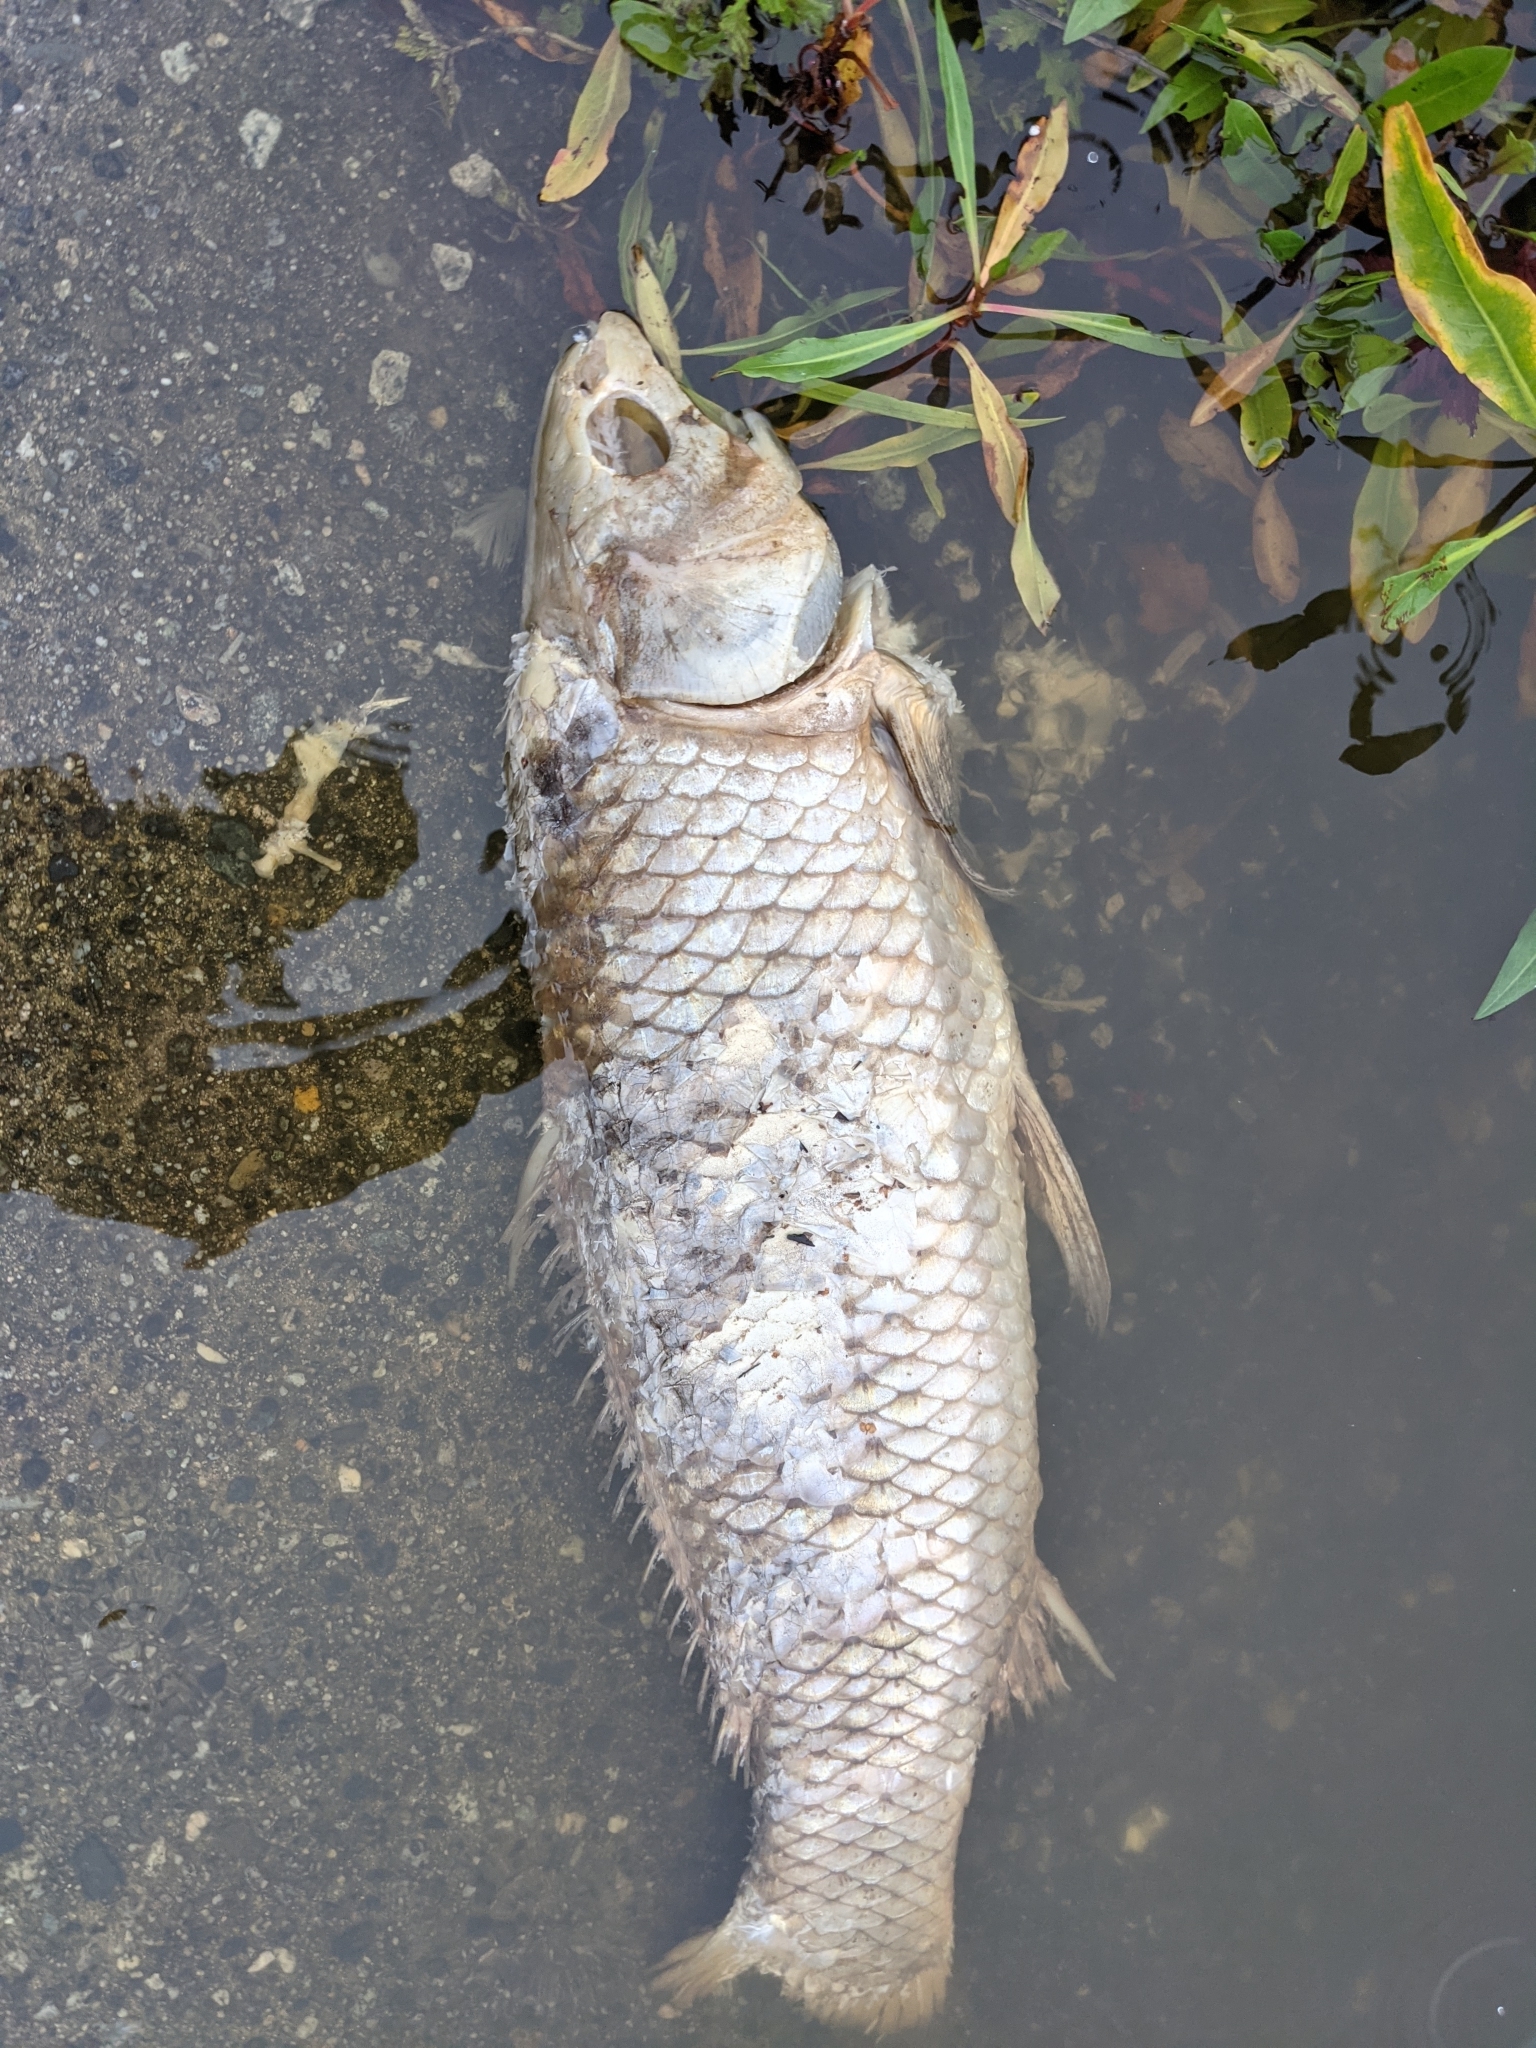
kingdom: Animalia
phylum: Chordata
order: Cypriniformes
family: Cyprinidae
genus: Cyprinus
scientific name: Cyprinus carpio
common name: Common carp
